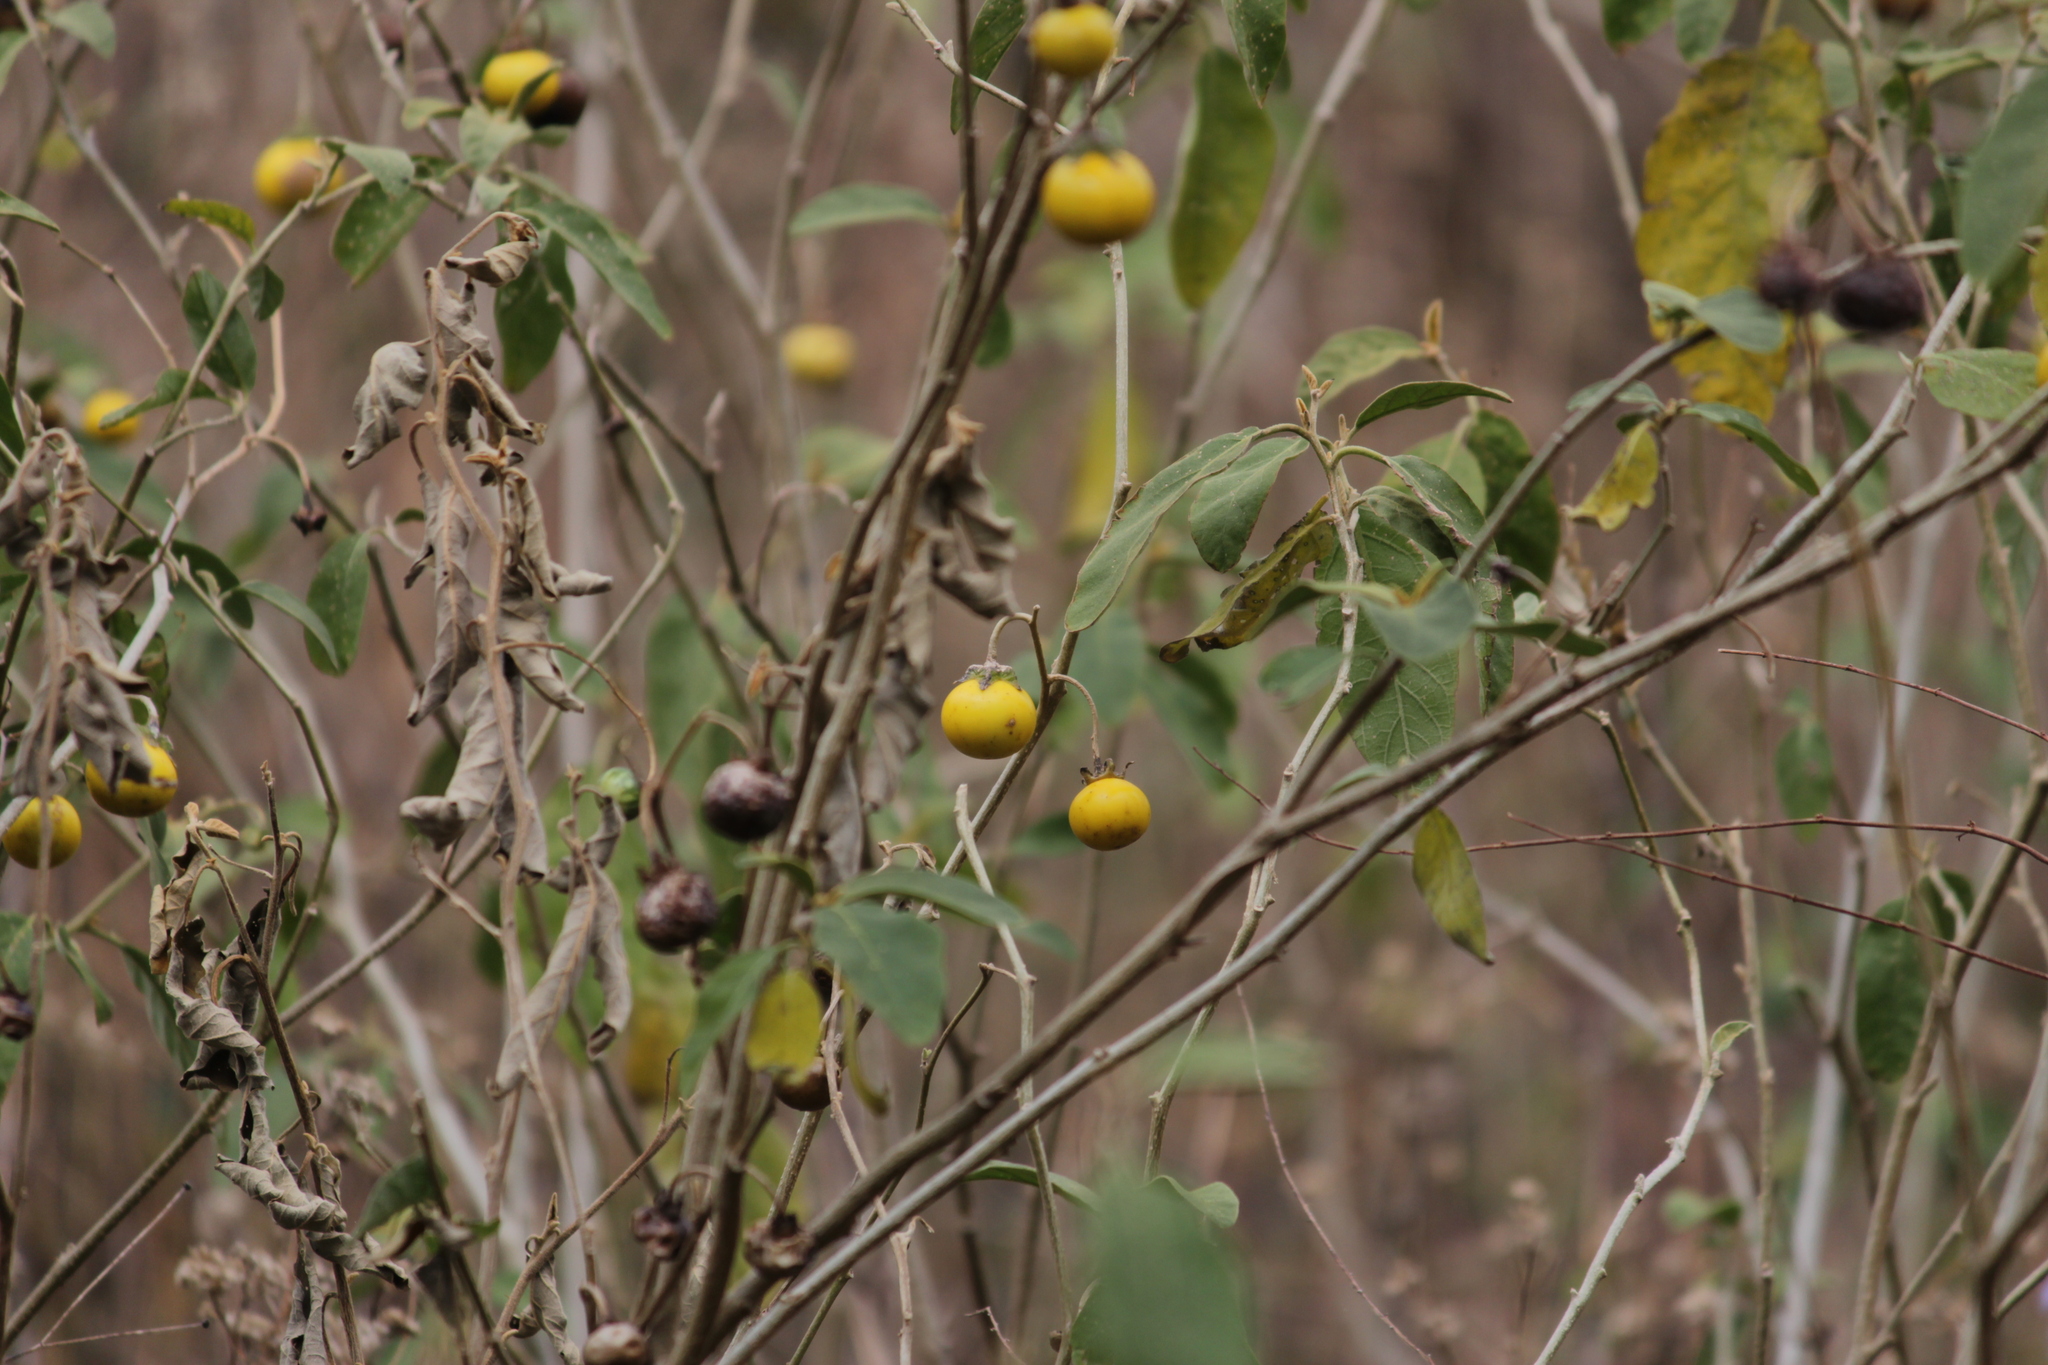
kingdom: Plantae
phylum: Tracheophyta
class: Magnoliopsida
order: Solanales
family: Solanaceae
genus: Solanum
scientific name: Solanum campylacanthum
